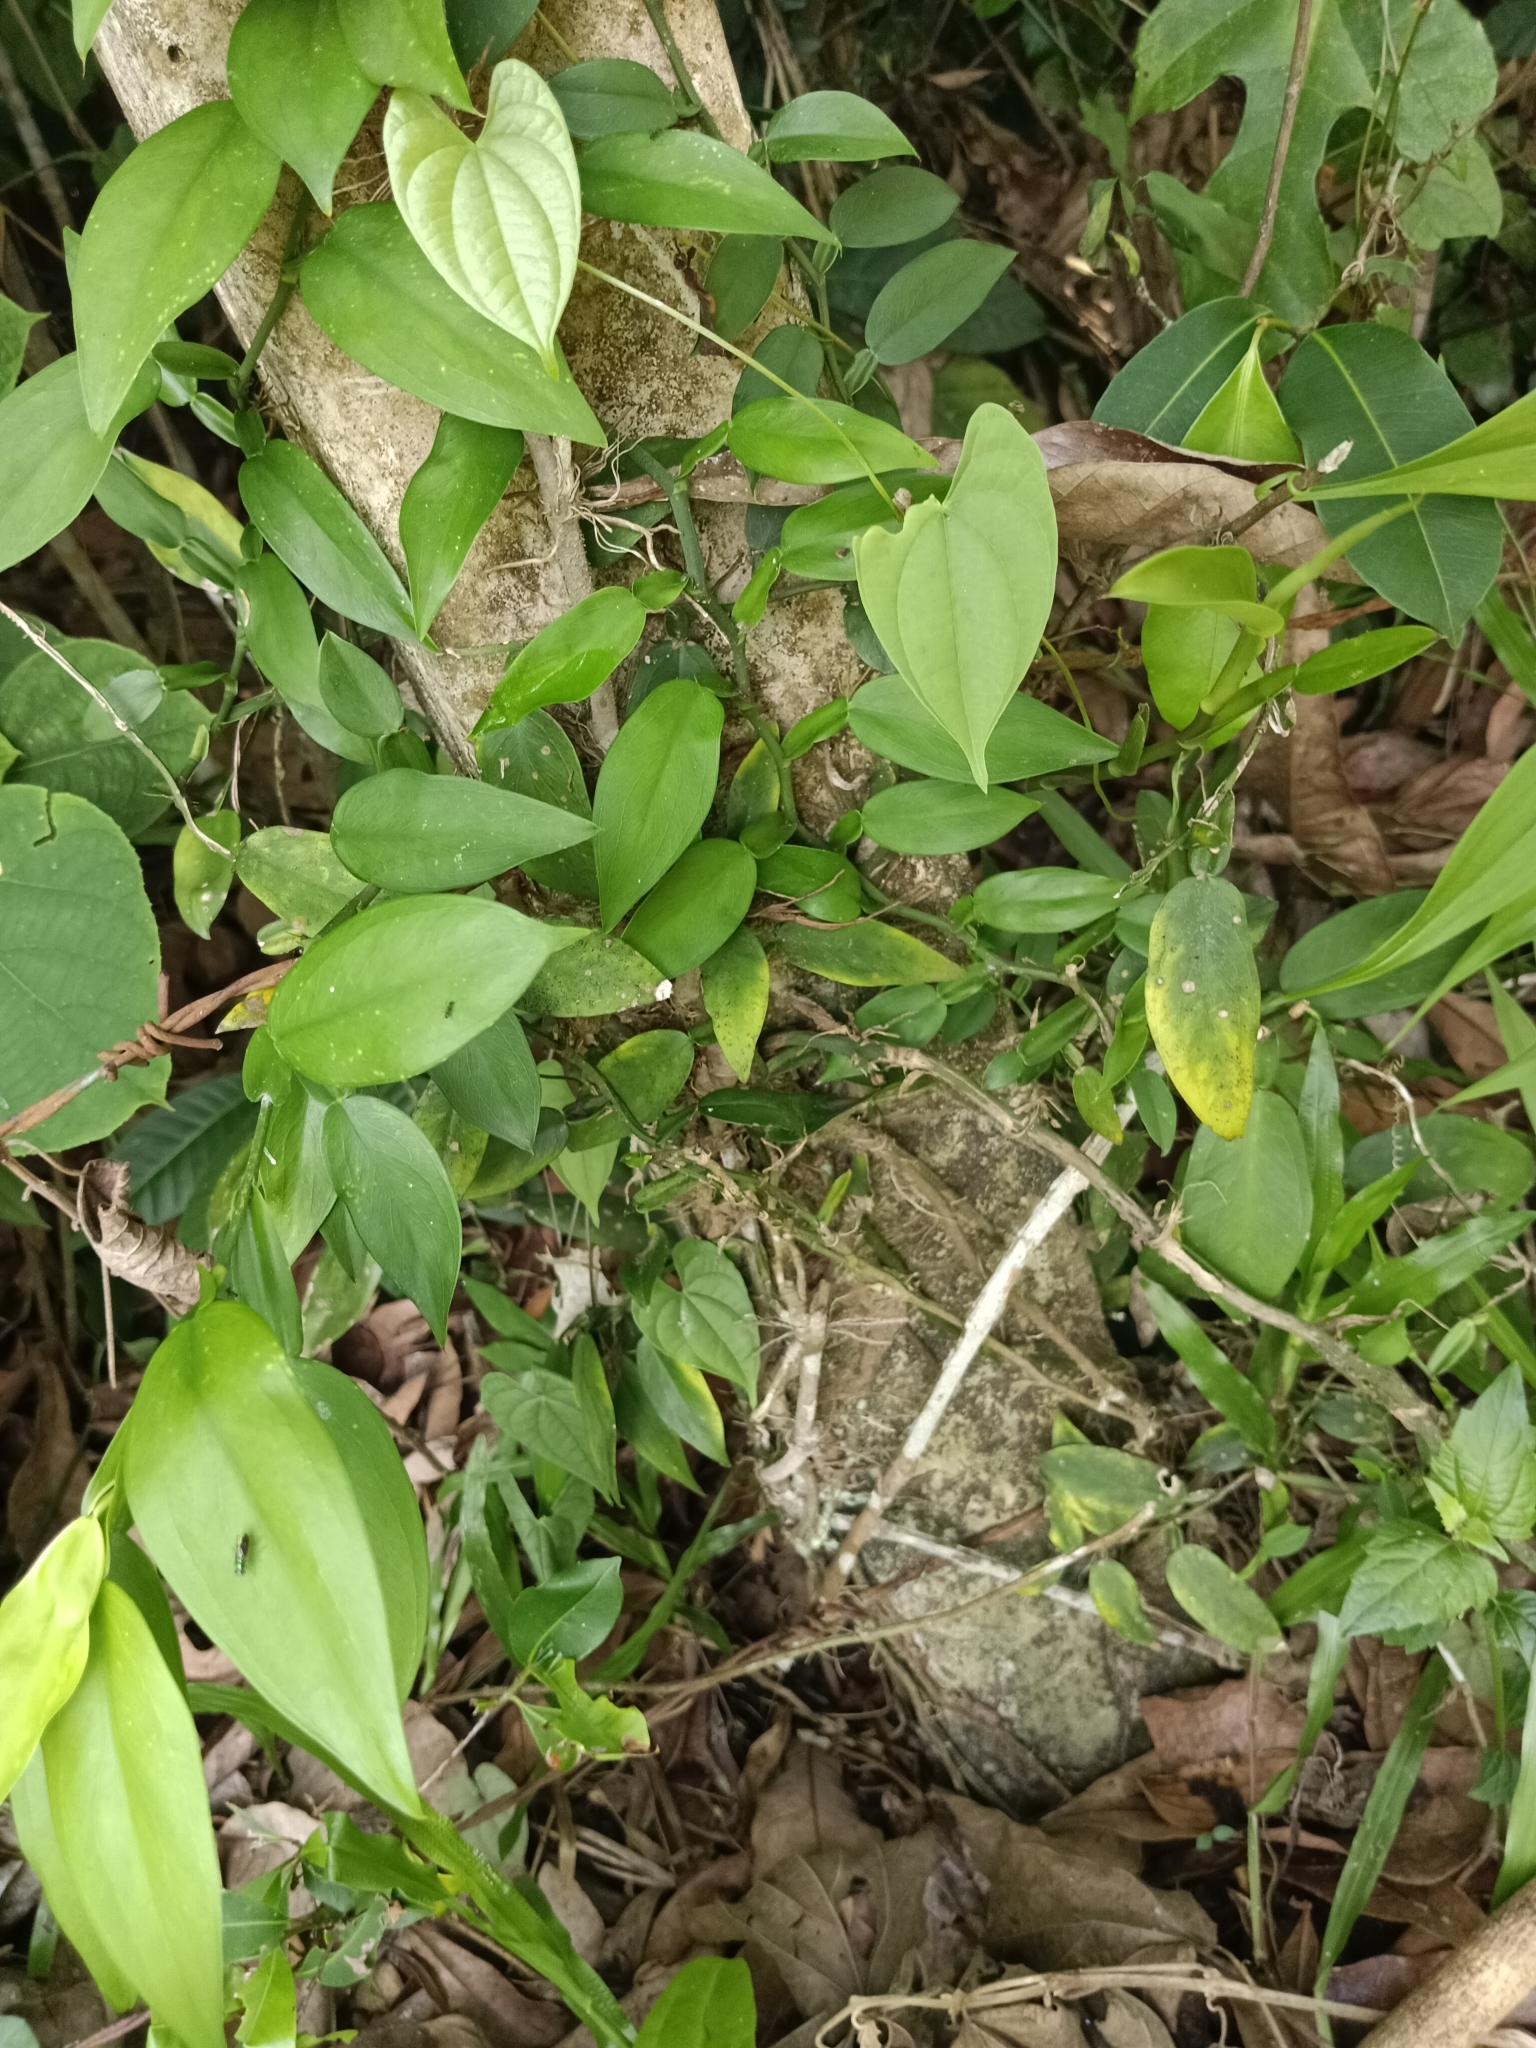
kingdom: Plantae
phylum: Tracheophyta
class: Liliopsida
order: Alismatales
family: Araceae
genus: Pothos
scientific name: Pothos chinensis
